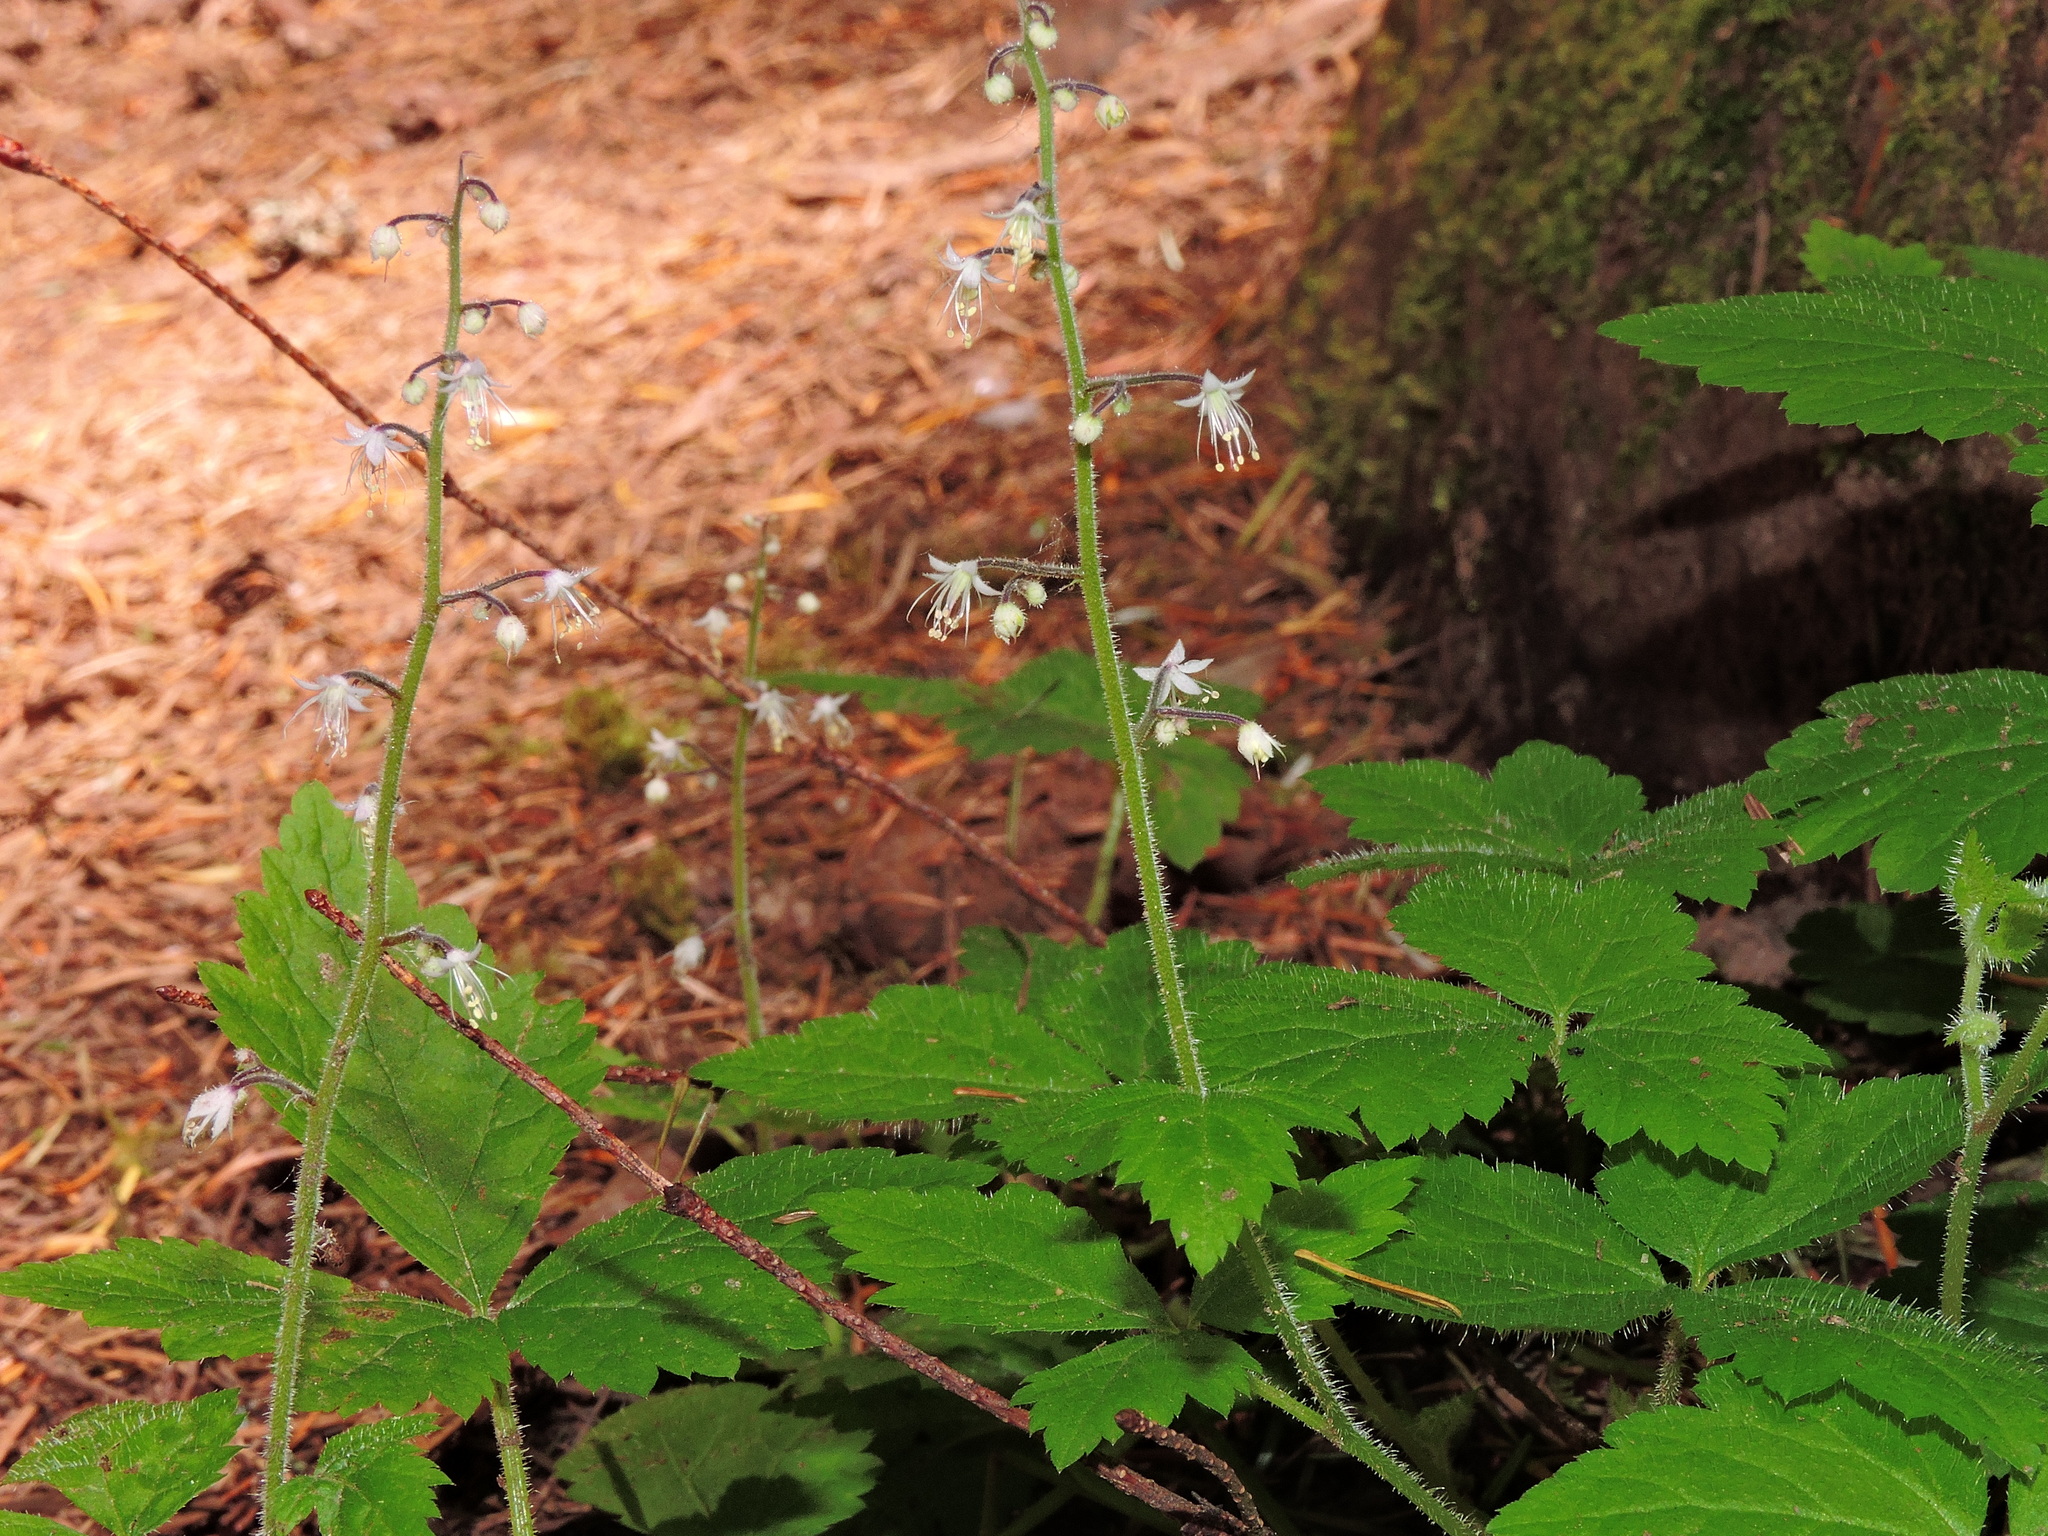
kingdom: Plantae
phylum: Tracheophyta
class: Magnoliopsida
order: Saxifragales
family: Saxifragaceae
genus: Tiarella
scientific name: Tiarella trifoliata
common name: Sugar-scoop
